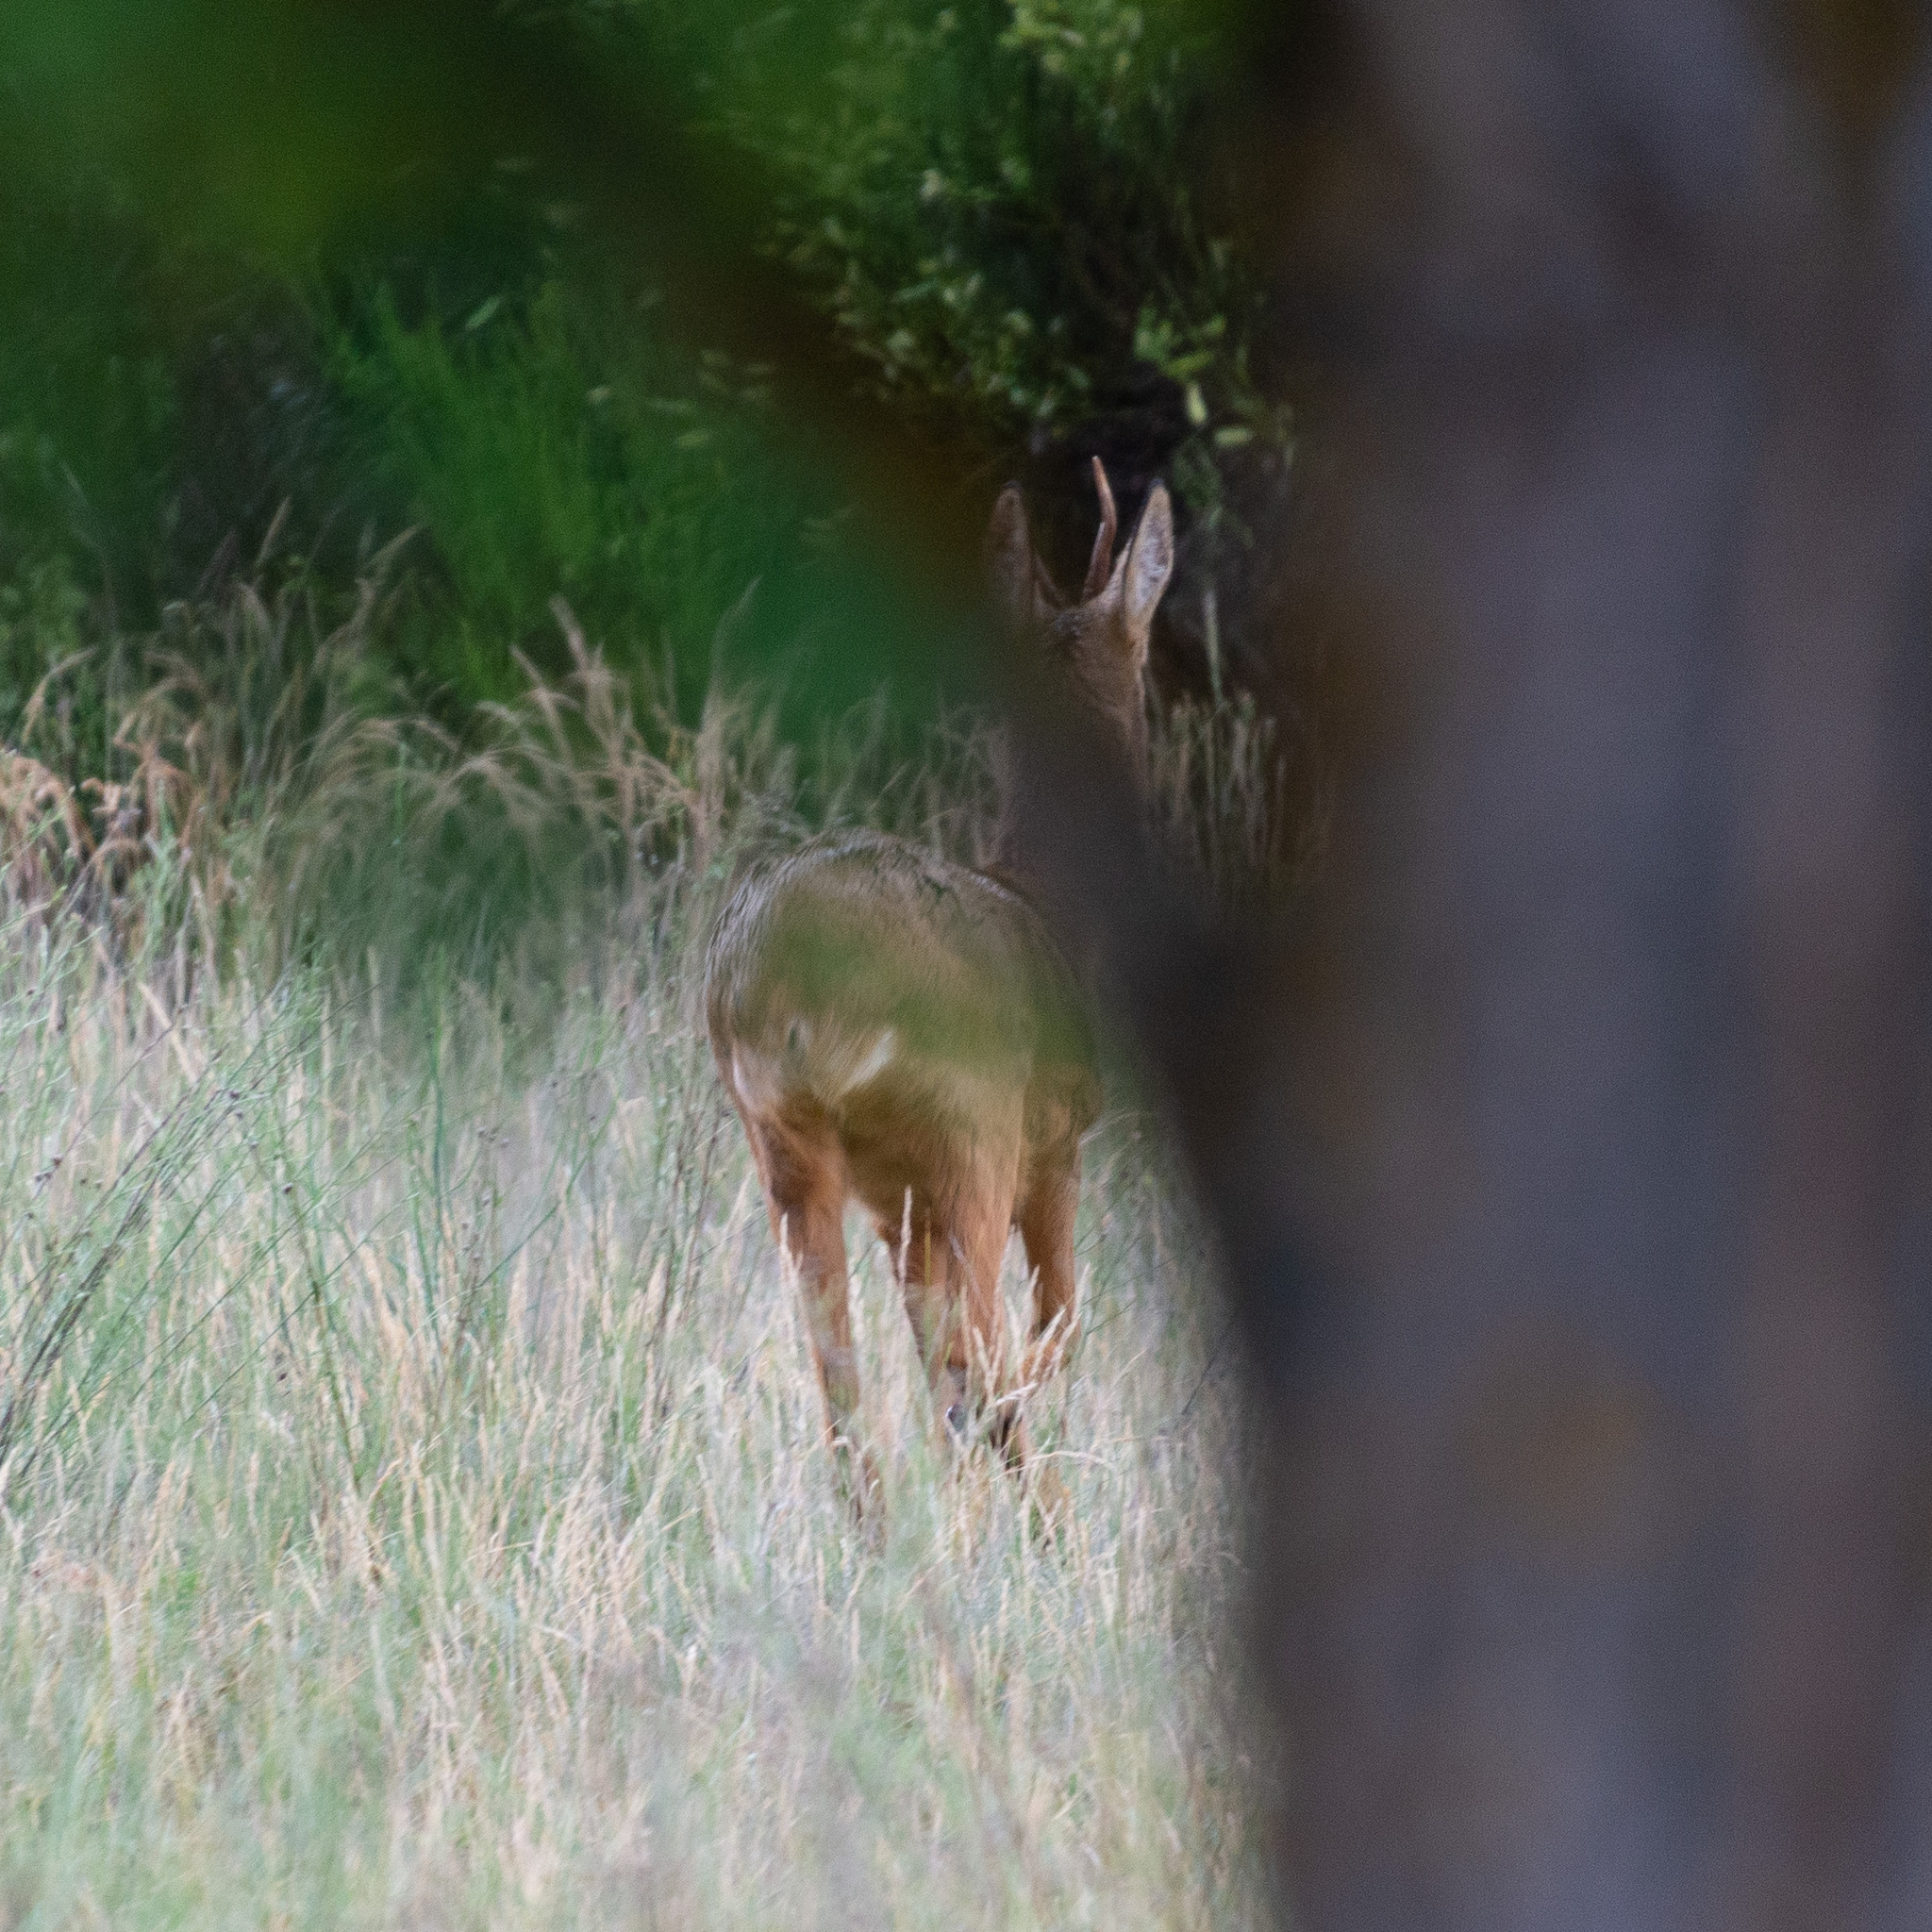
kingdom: Animalia
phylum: Chordata
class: Mammalia
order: Artiodactyla
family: Cervidae
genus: Capreolus
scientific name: Capreolus capreolus
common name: Western roe deer
